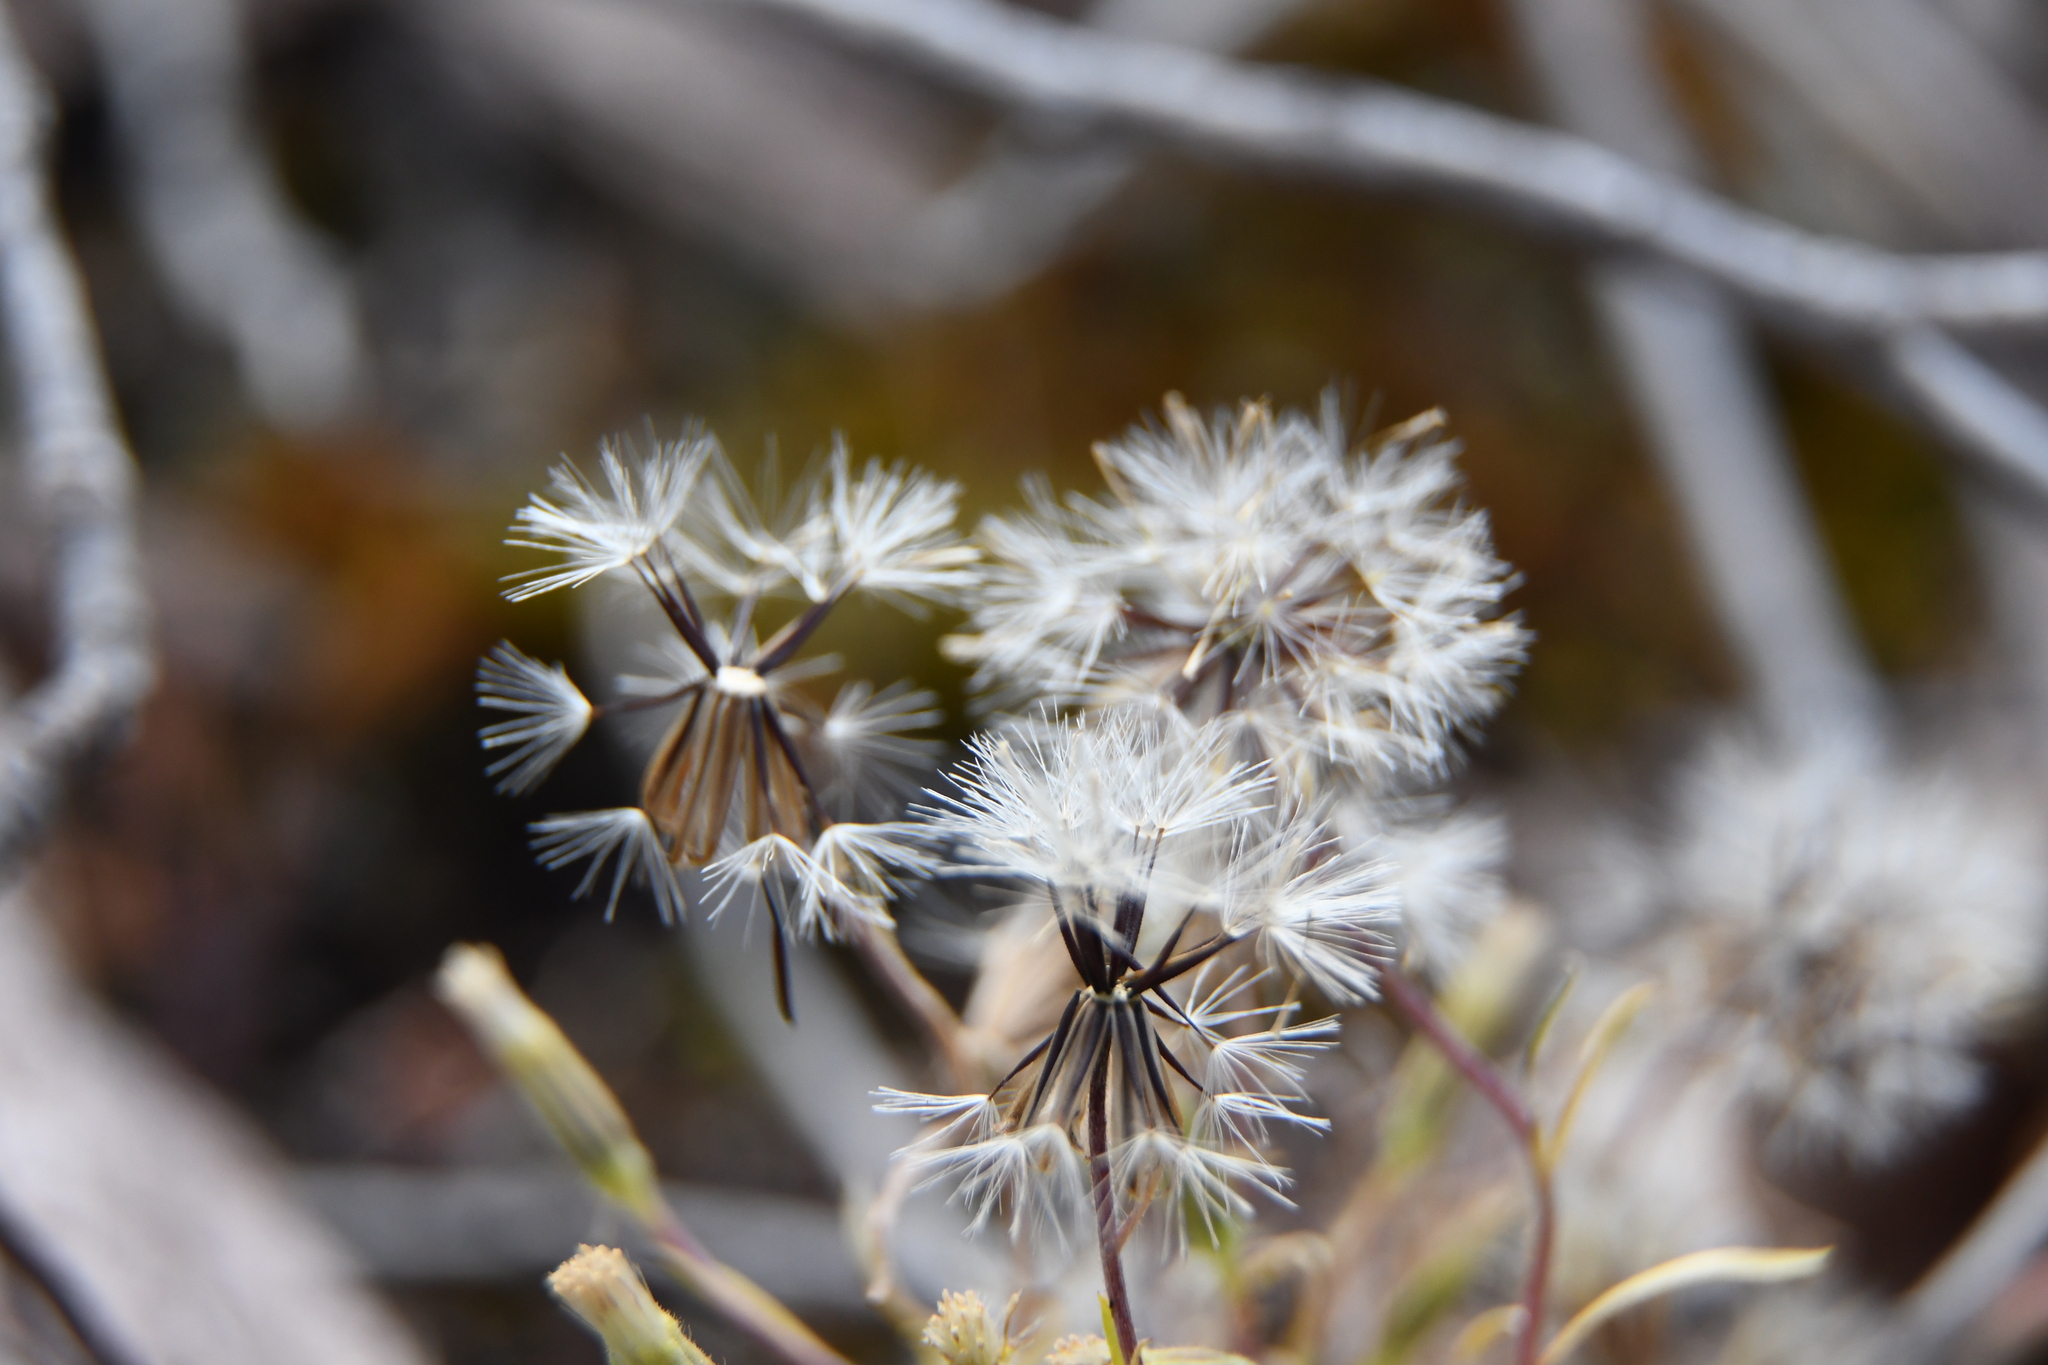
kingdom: Plantae
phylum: Tracheophyta
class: Magnoliopsida
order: Asterales
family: Asteraceae
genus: Millotia
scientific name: Millotia tenuifolia
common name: Soft millotia
